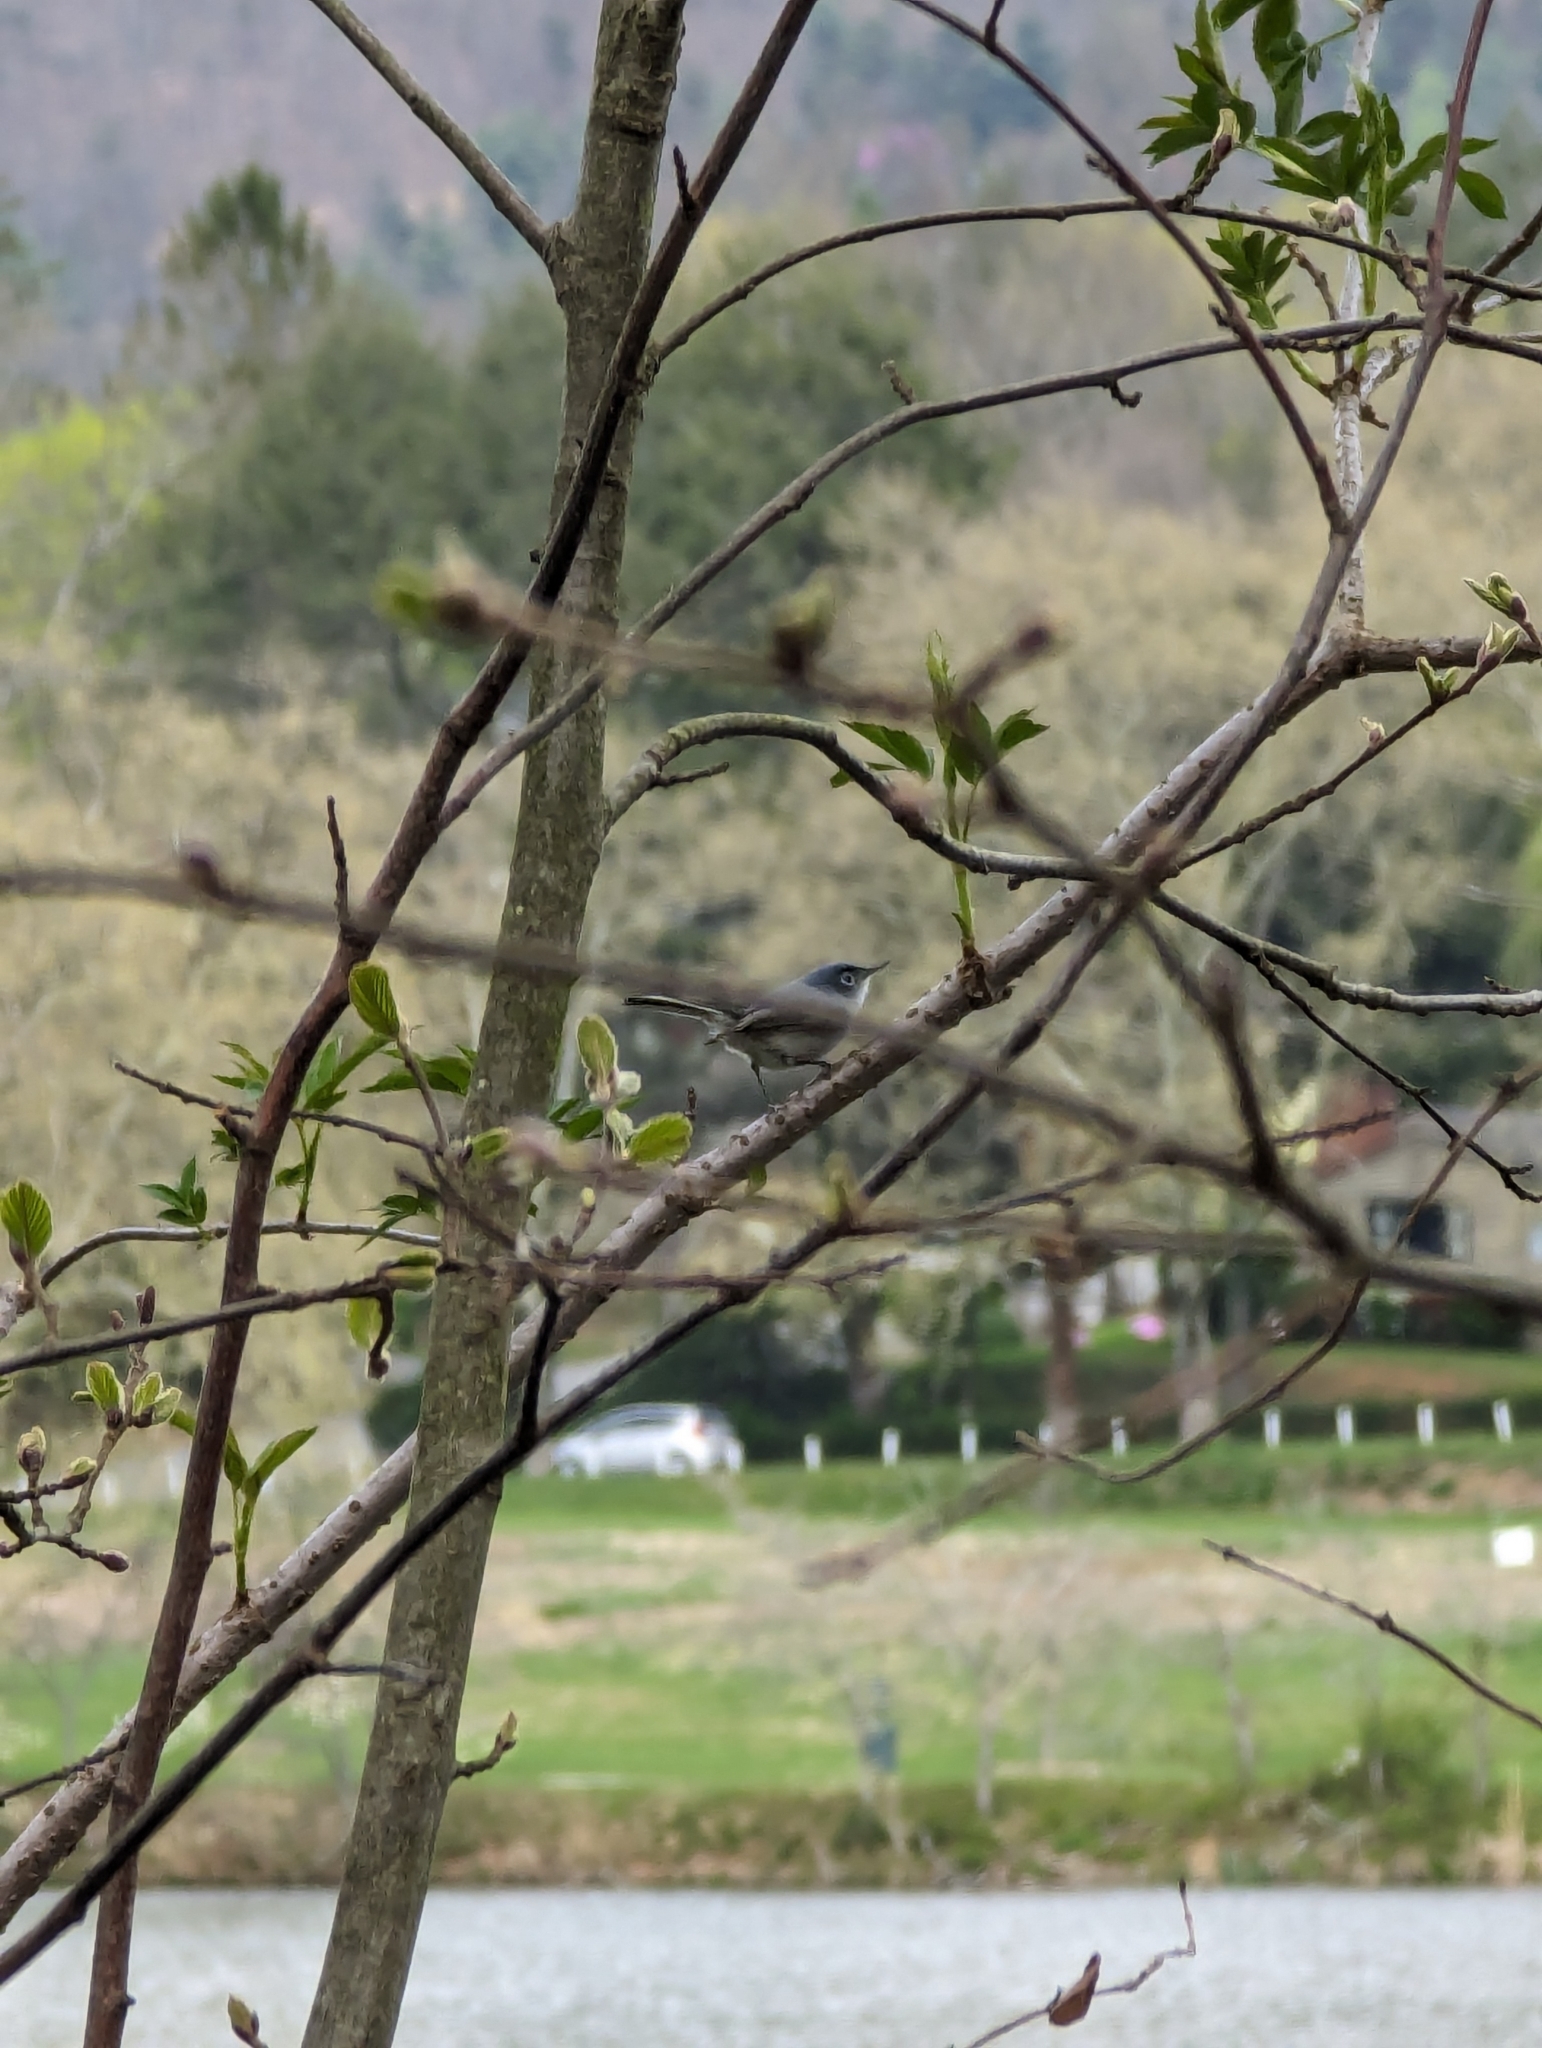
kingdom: Animalia
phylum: Chordata
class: Aves
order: Passeriformes
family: Polioptilidae
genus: Polioptila
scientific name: Polioptila caerulea
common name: Blue-gray gnatcatcher
